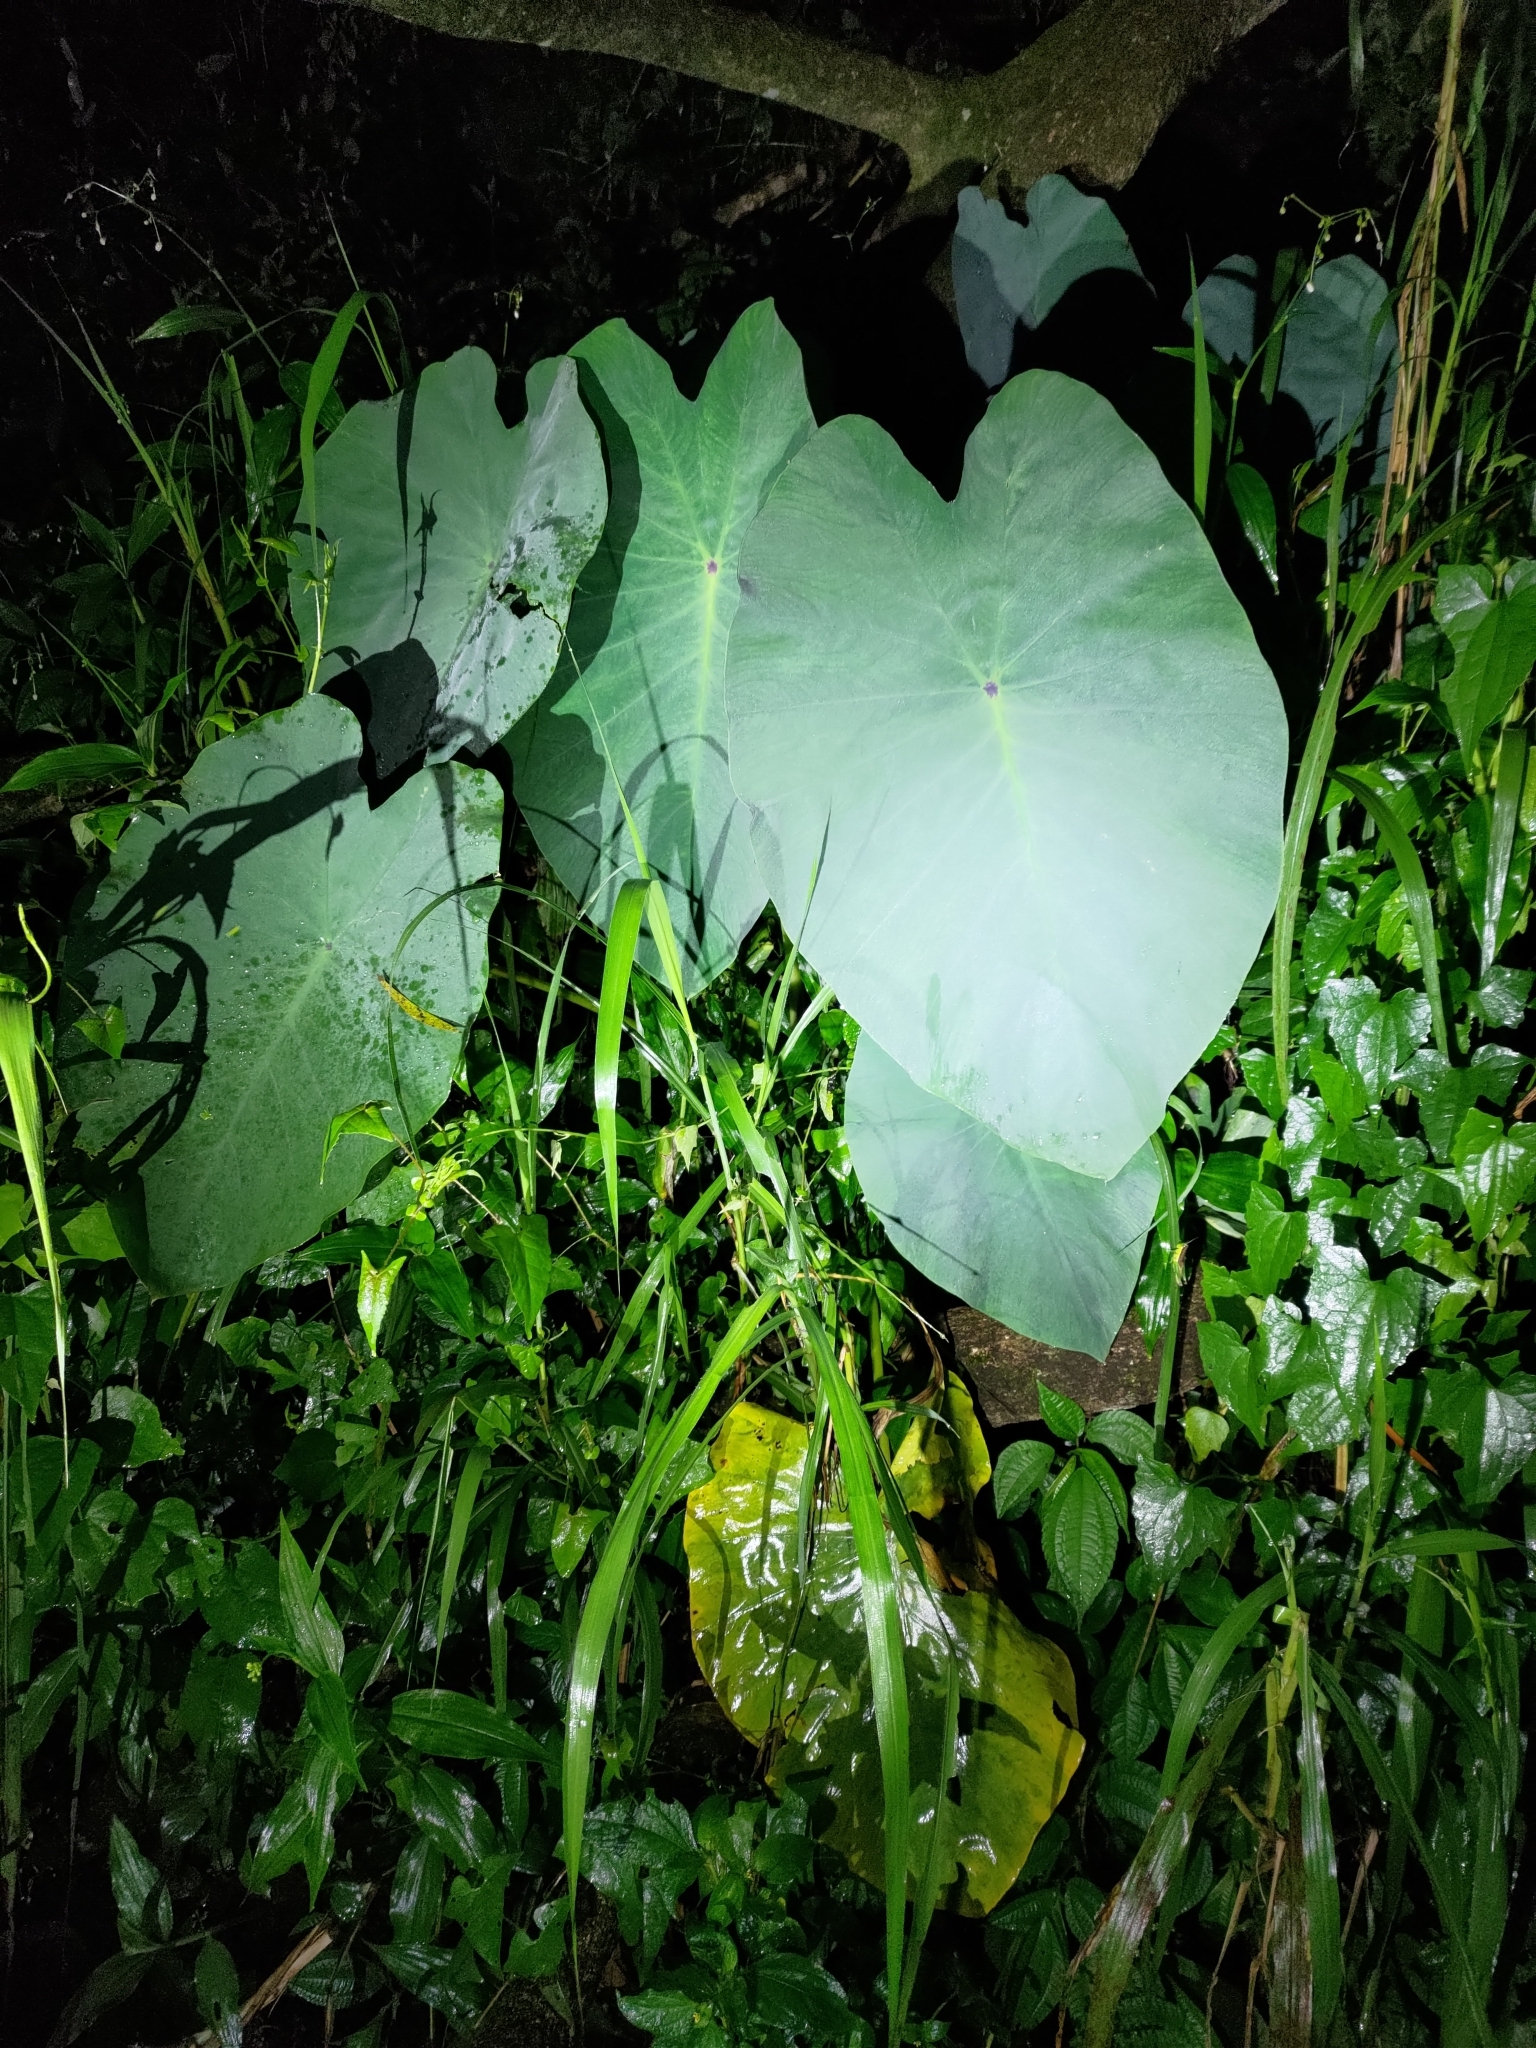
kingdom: Plantae
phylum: Tracheophyta
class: Liliopsida
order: Alismatales
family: Araceae
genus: Colocasia
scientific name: Colocasia esculenta
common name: Taro
